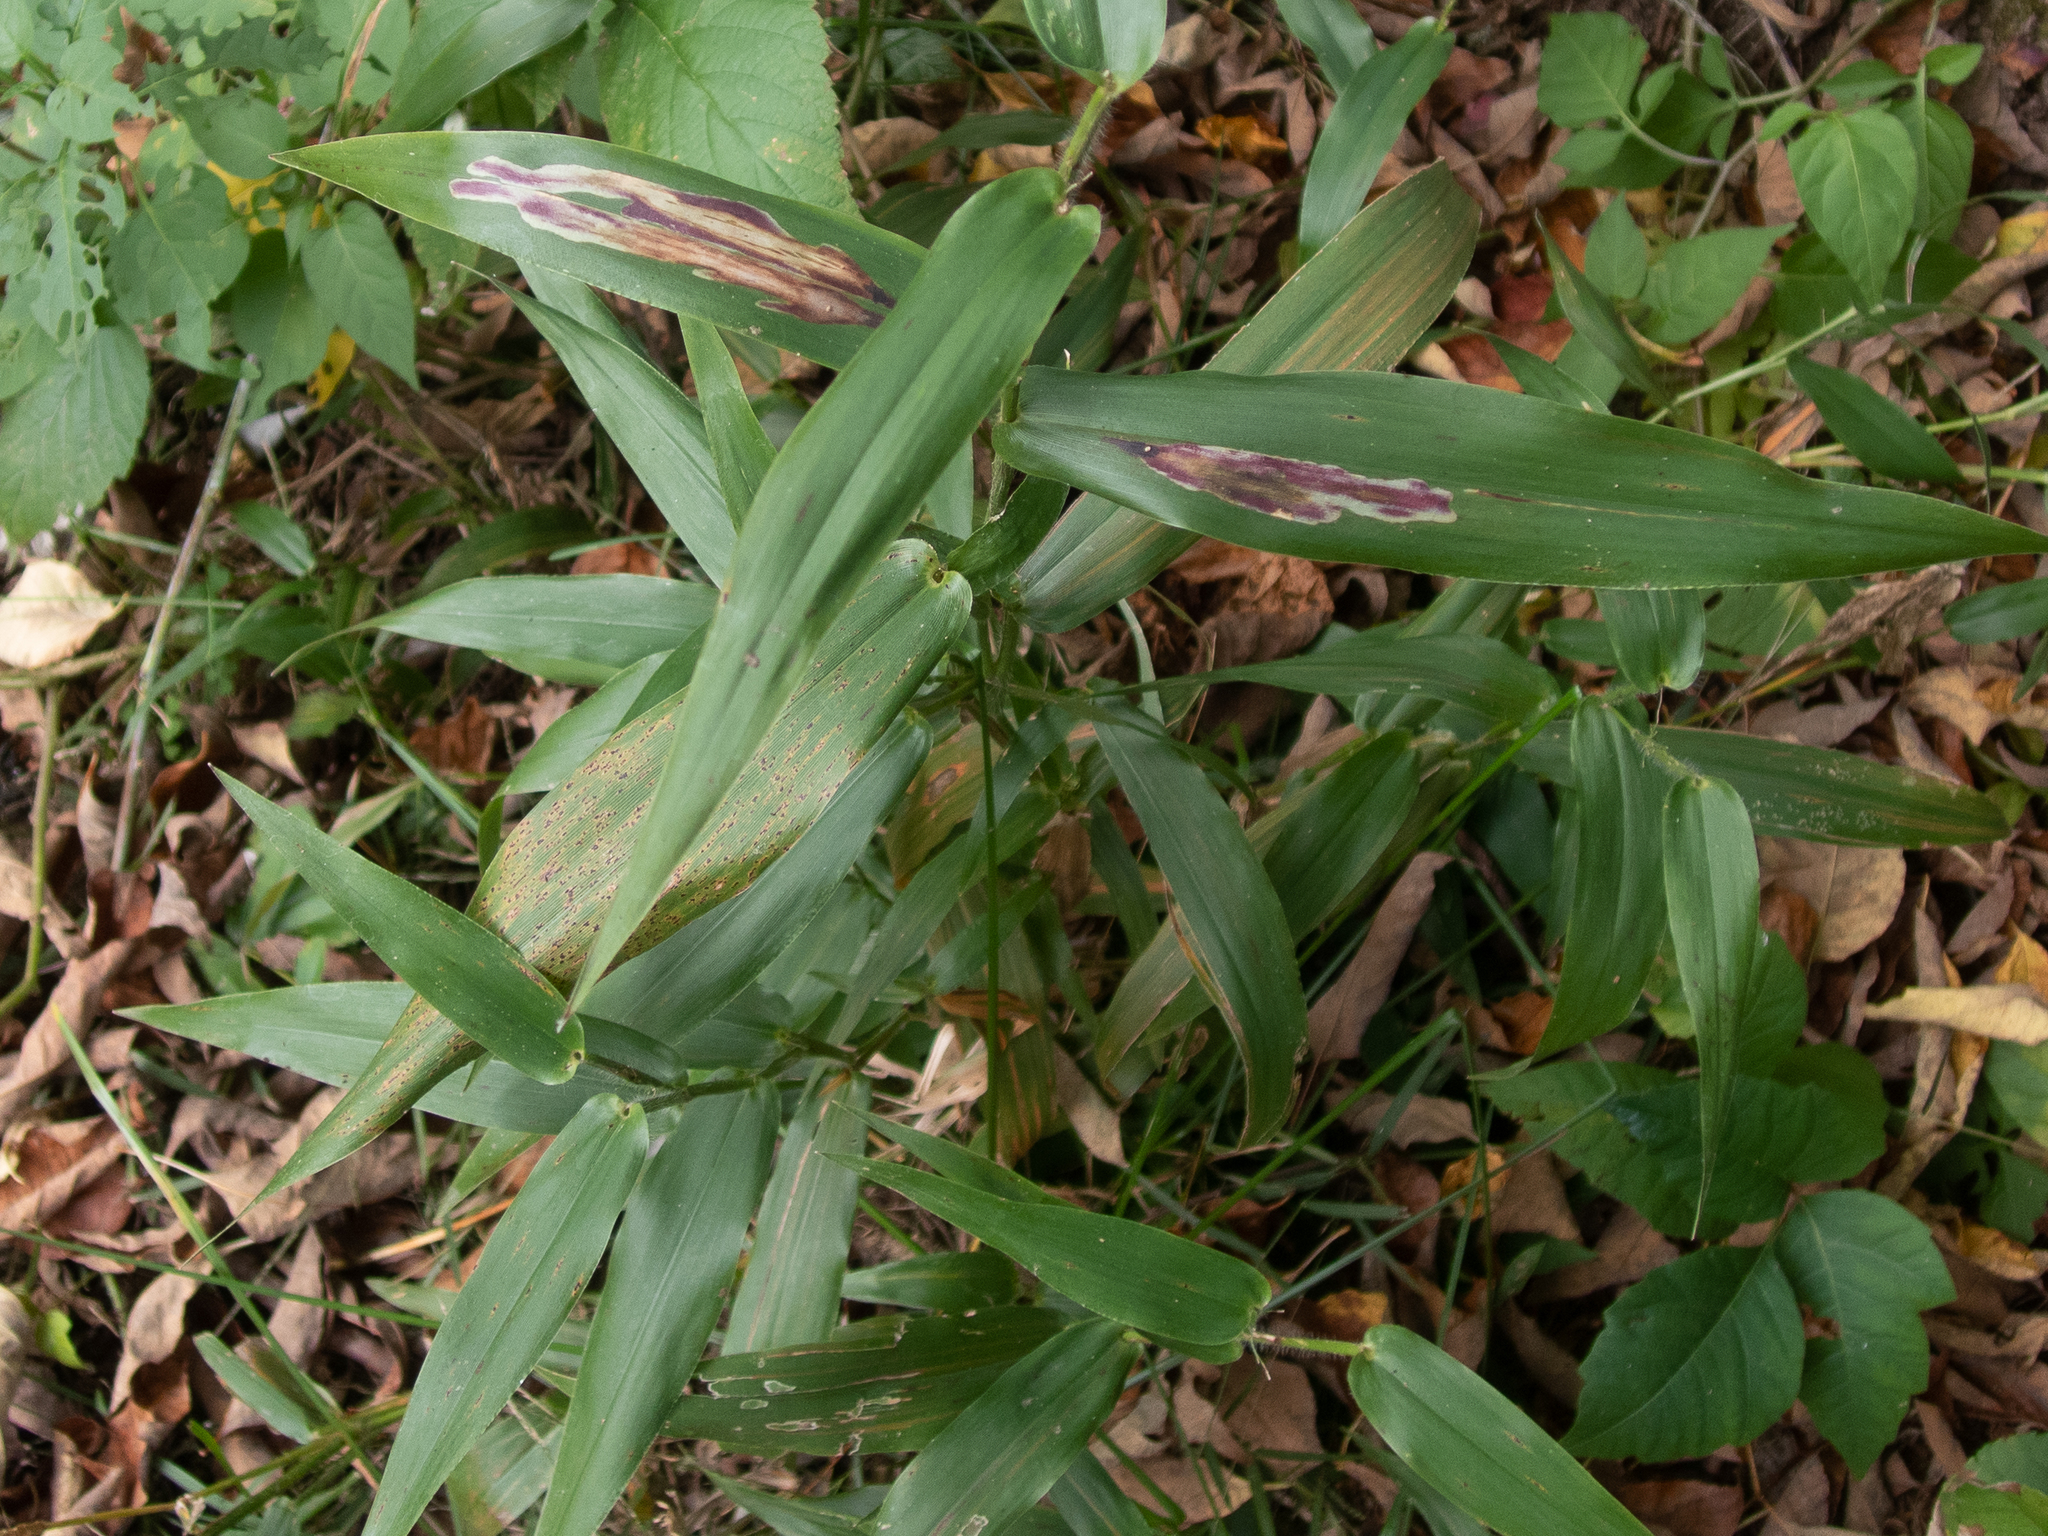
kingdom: Animalia
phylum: Arthropoda
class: Insecta
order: Diptera
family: Agromyzidae
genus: Cerodontha
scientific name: Cerodontha angulata
